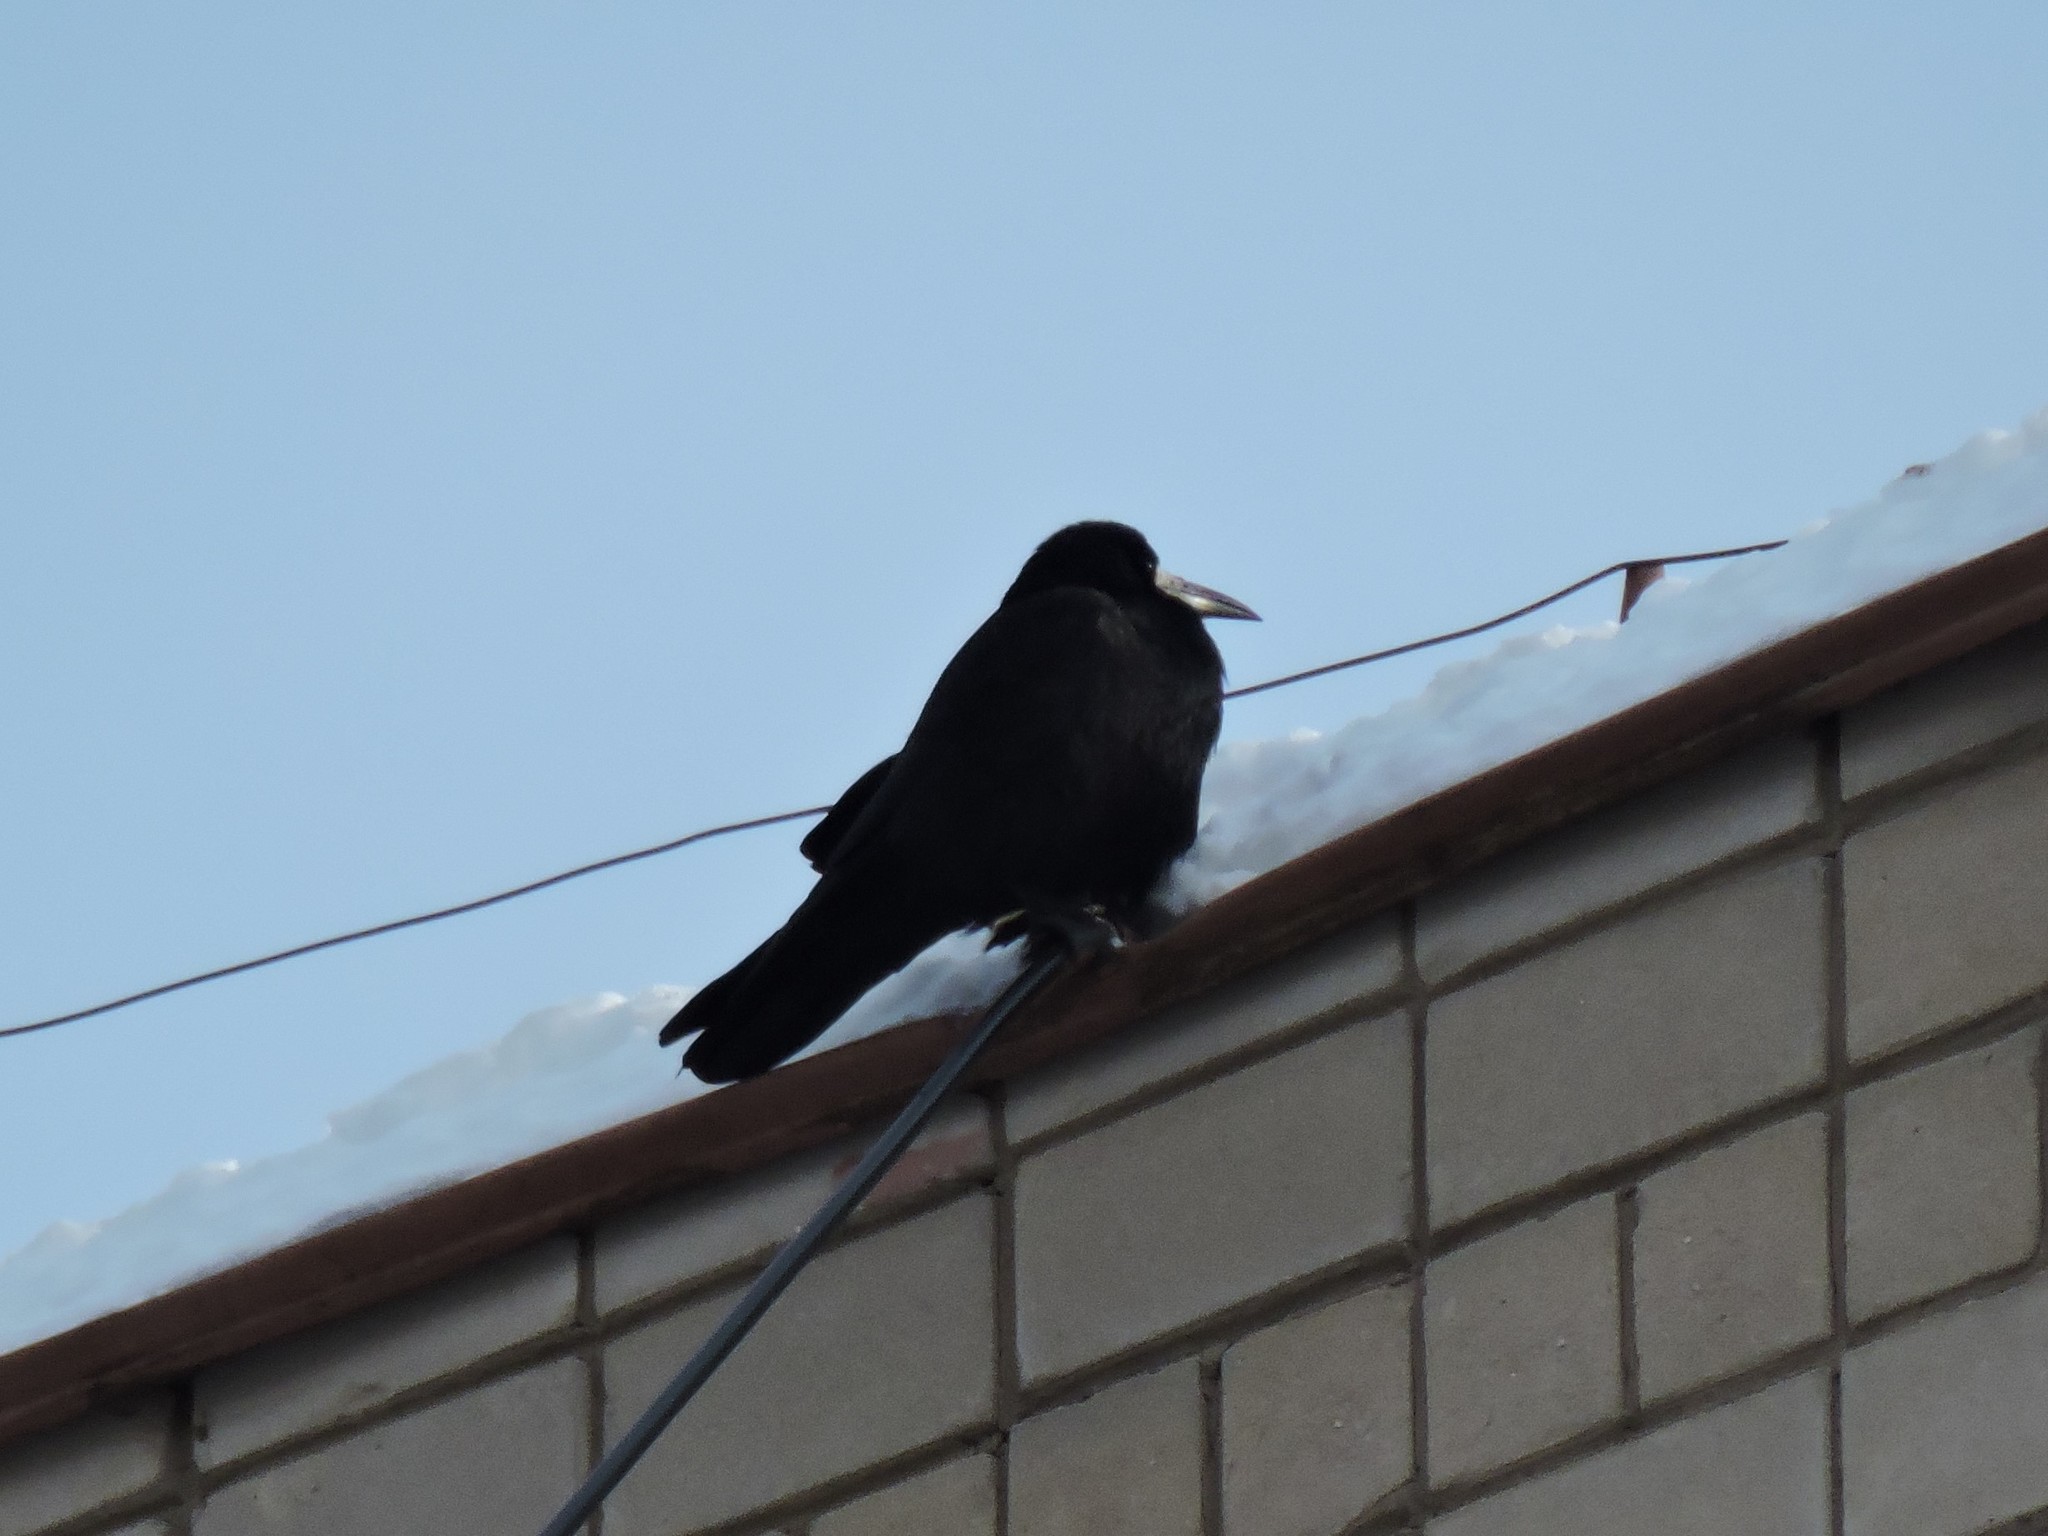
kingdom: Animalia
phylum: Chordata
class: Aves
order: Passeriformes
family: Corvidae
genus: Corvus
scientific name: Corvus frugilegus
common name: Rook
